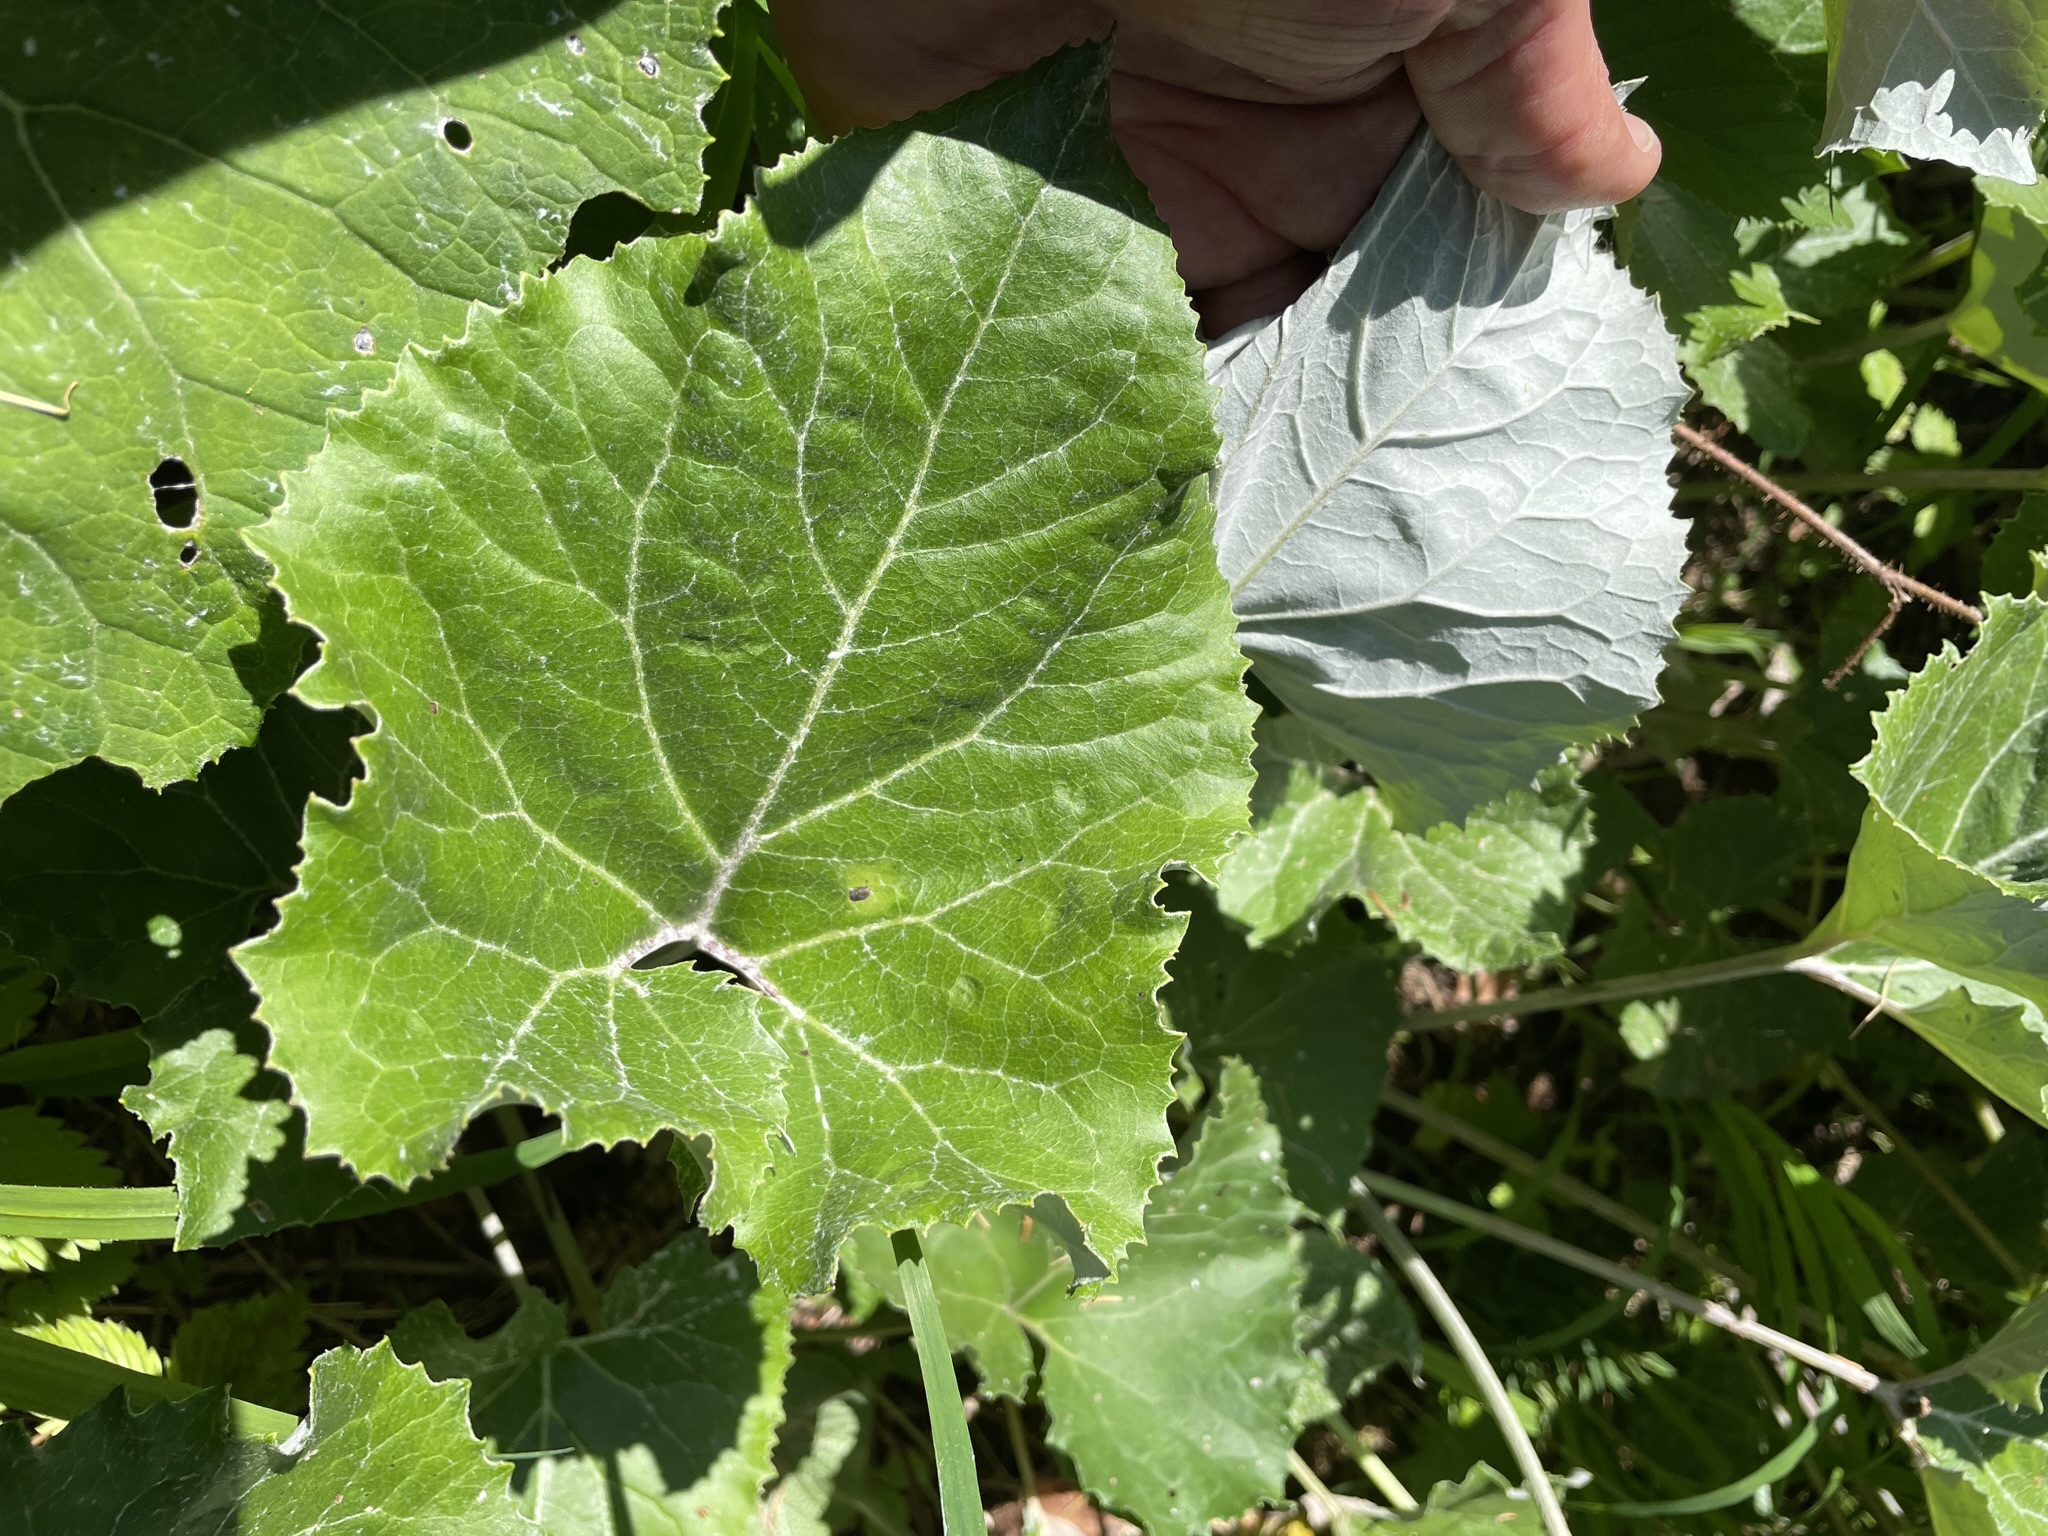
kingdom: Plantae
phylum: Tracheophyta
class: Magnoliopsida
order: Asterales
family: Asteraceae
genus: Petasites
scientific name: Petasites paradoxus
